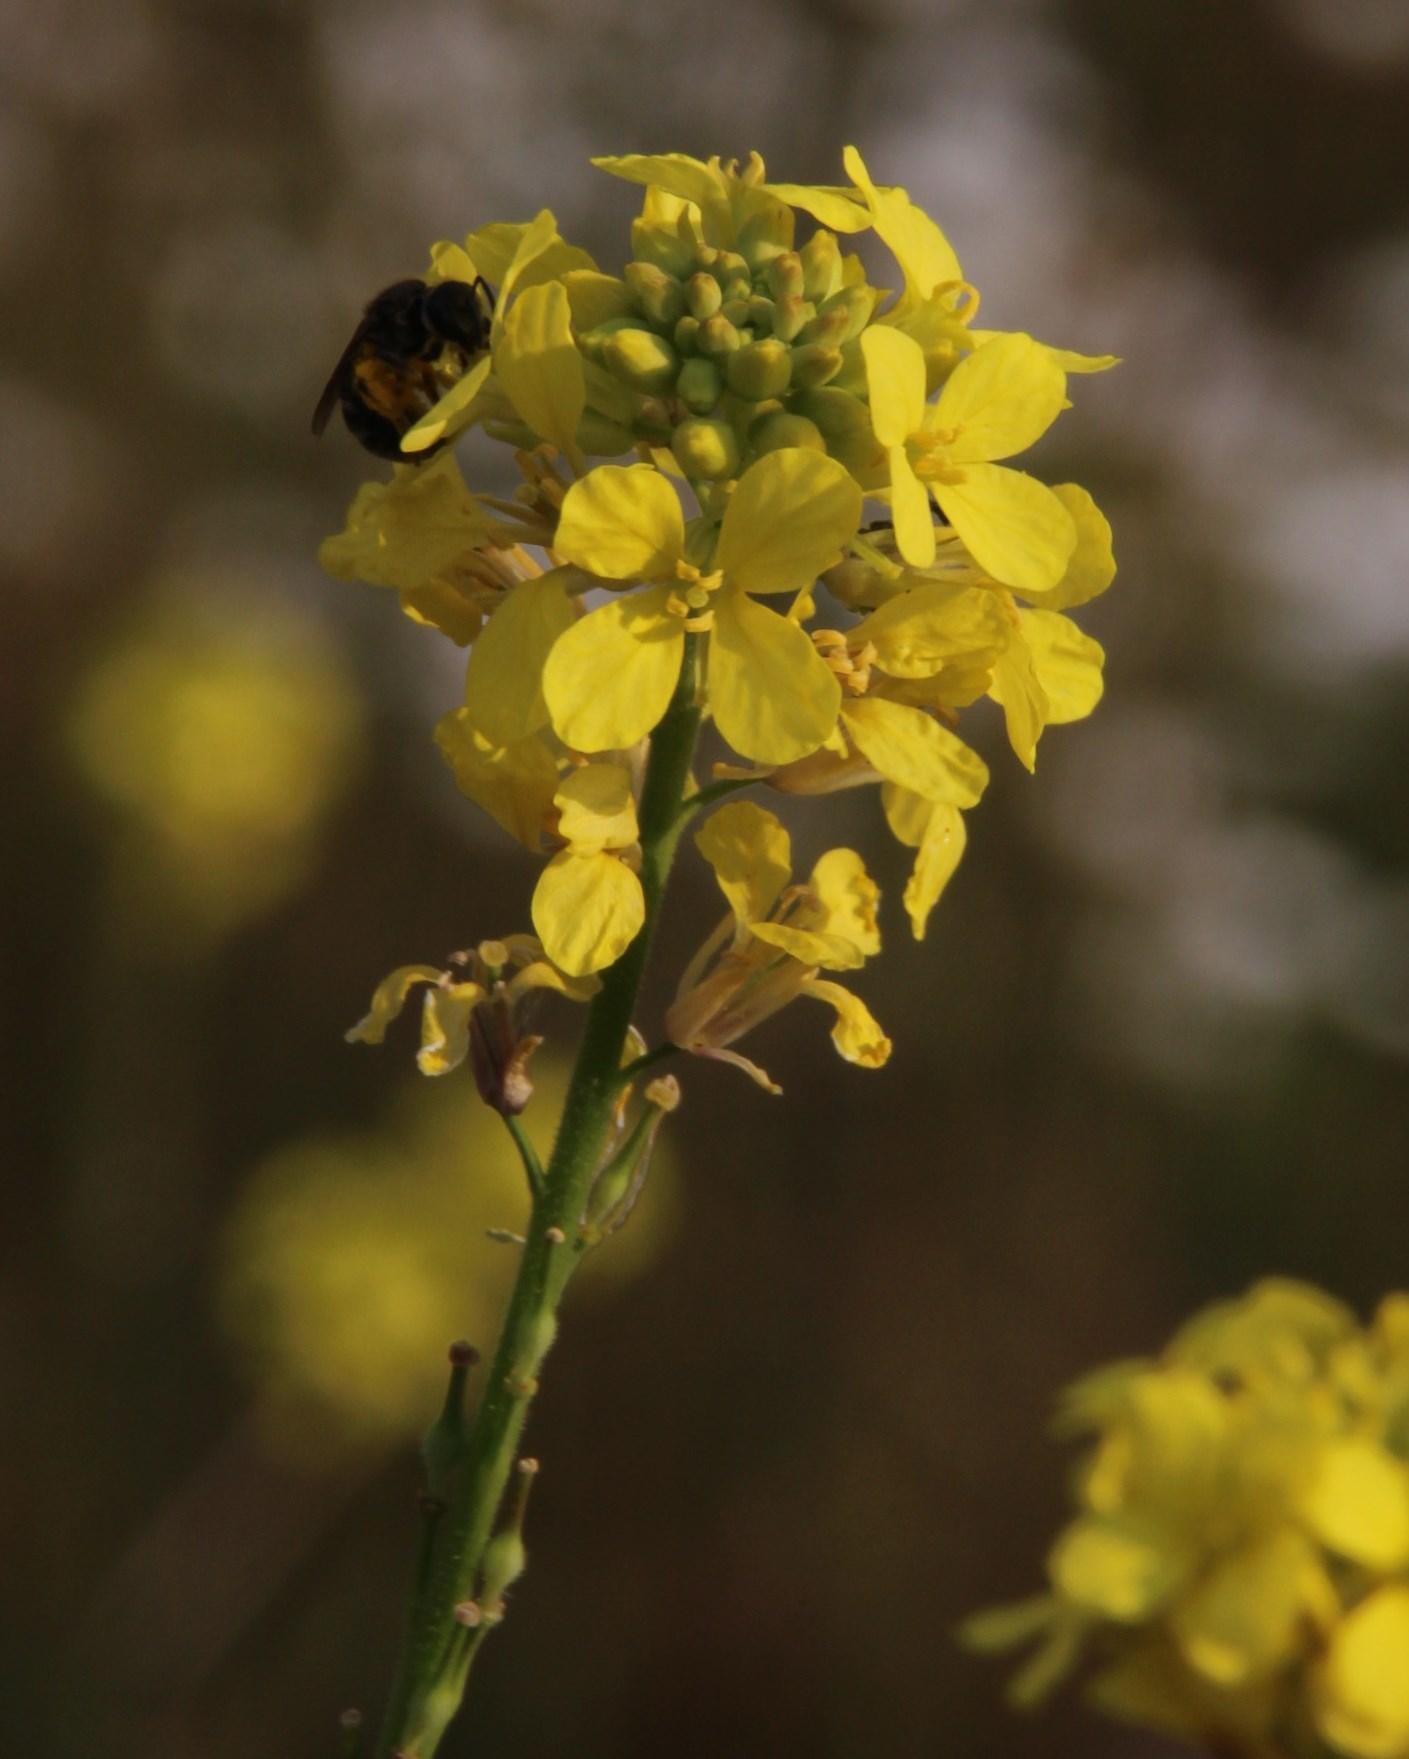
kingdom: Plantae
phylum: Tracheophyta
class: Magnoliopsida
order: Brassicales
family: Brassicaceae
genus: Rapistrum
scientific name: Rapistrum rugosum
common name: Annual bastardcabbage
